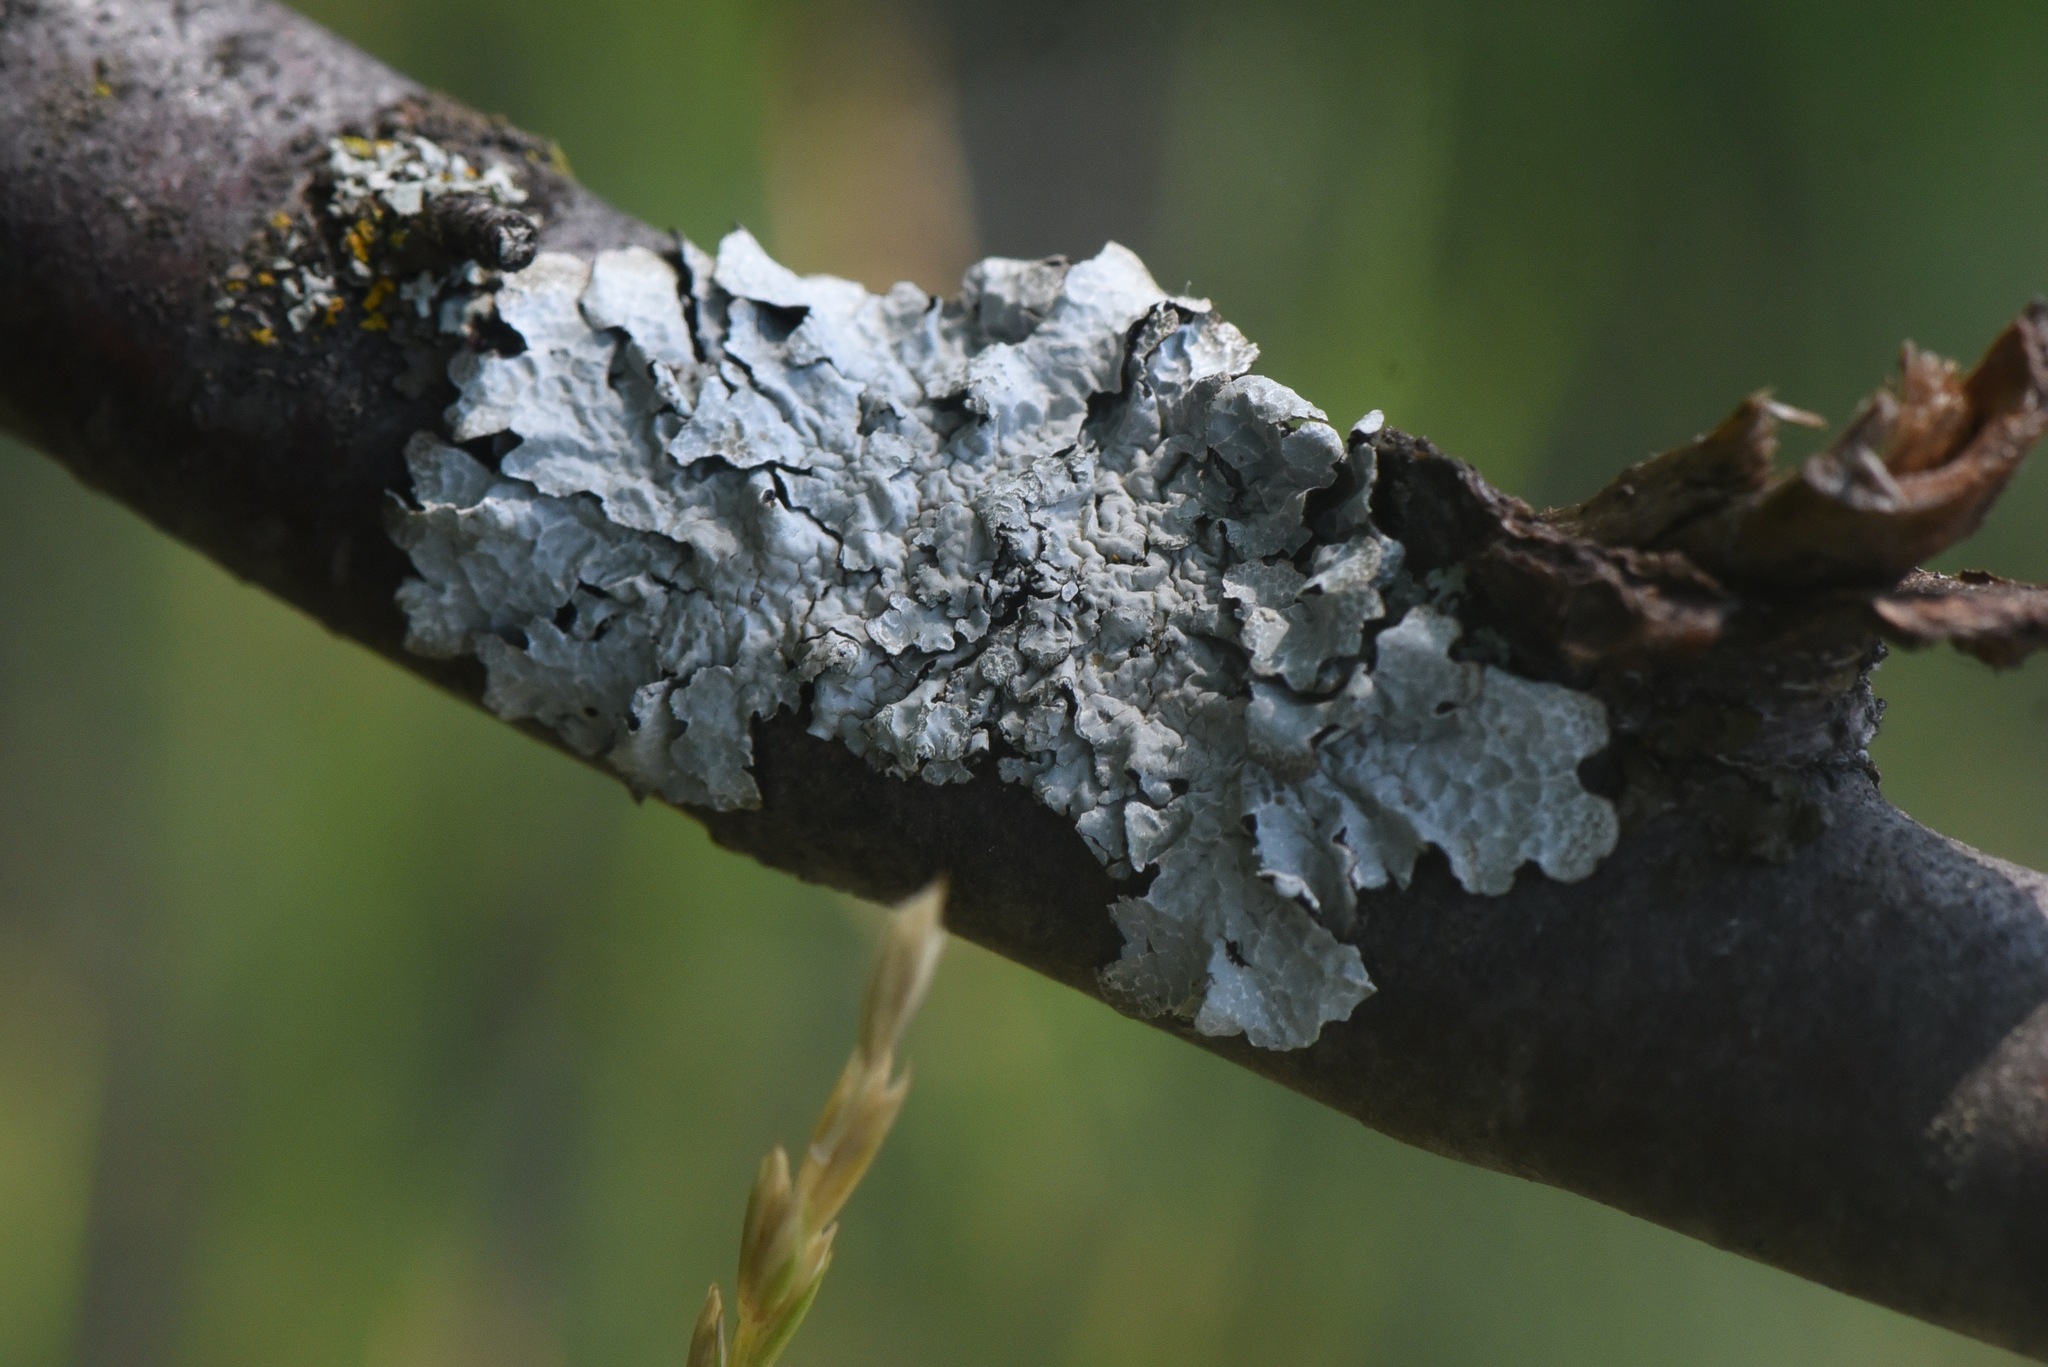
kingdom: Fungi
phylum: Ascomycota
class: Lecanoromycetes
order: Lecanorales
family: Parmeliaceae
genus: Parmelia
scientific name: Parmelia sulcata
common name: Netted shield lichen
